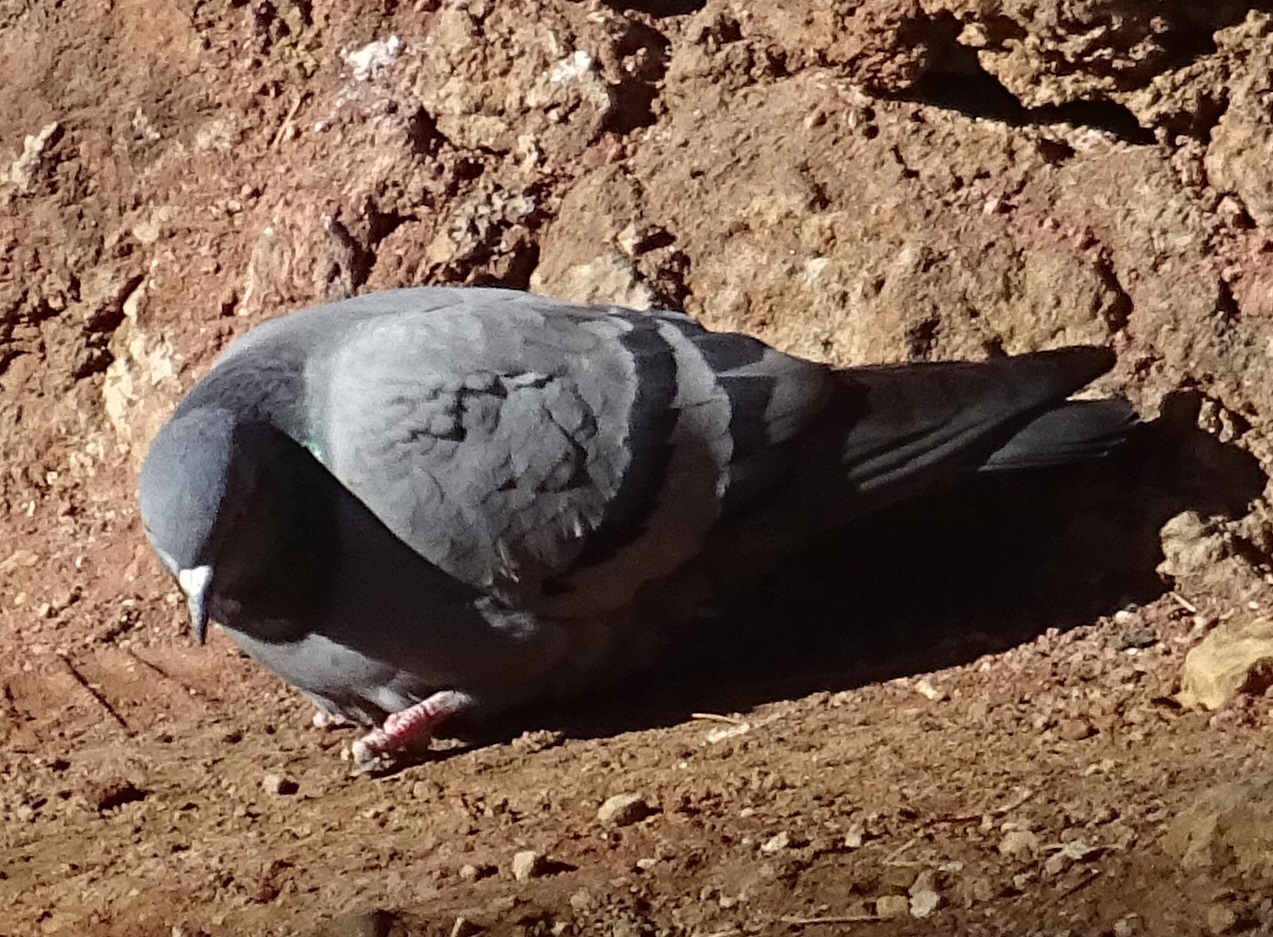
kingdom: Animalia
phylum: Chordata
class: Aves
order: Columbiformes
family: Columbidae
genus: Columba
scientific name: Columba livia
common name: Rock pigeon
